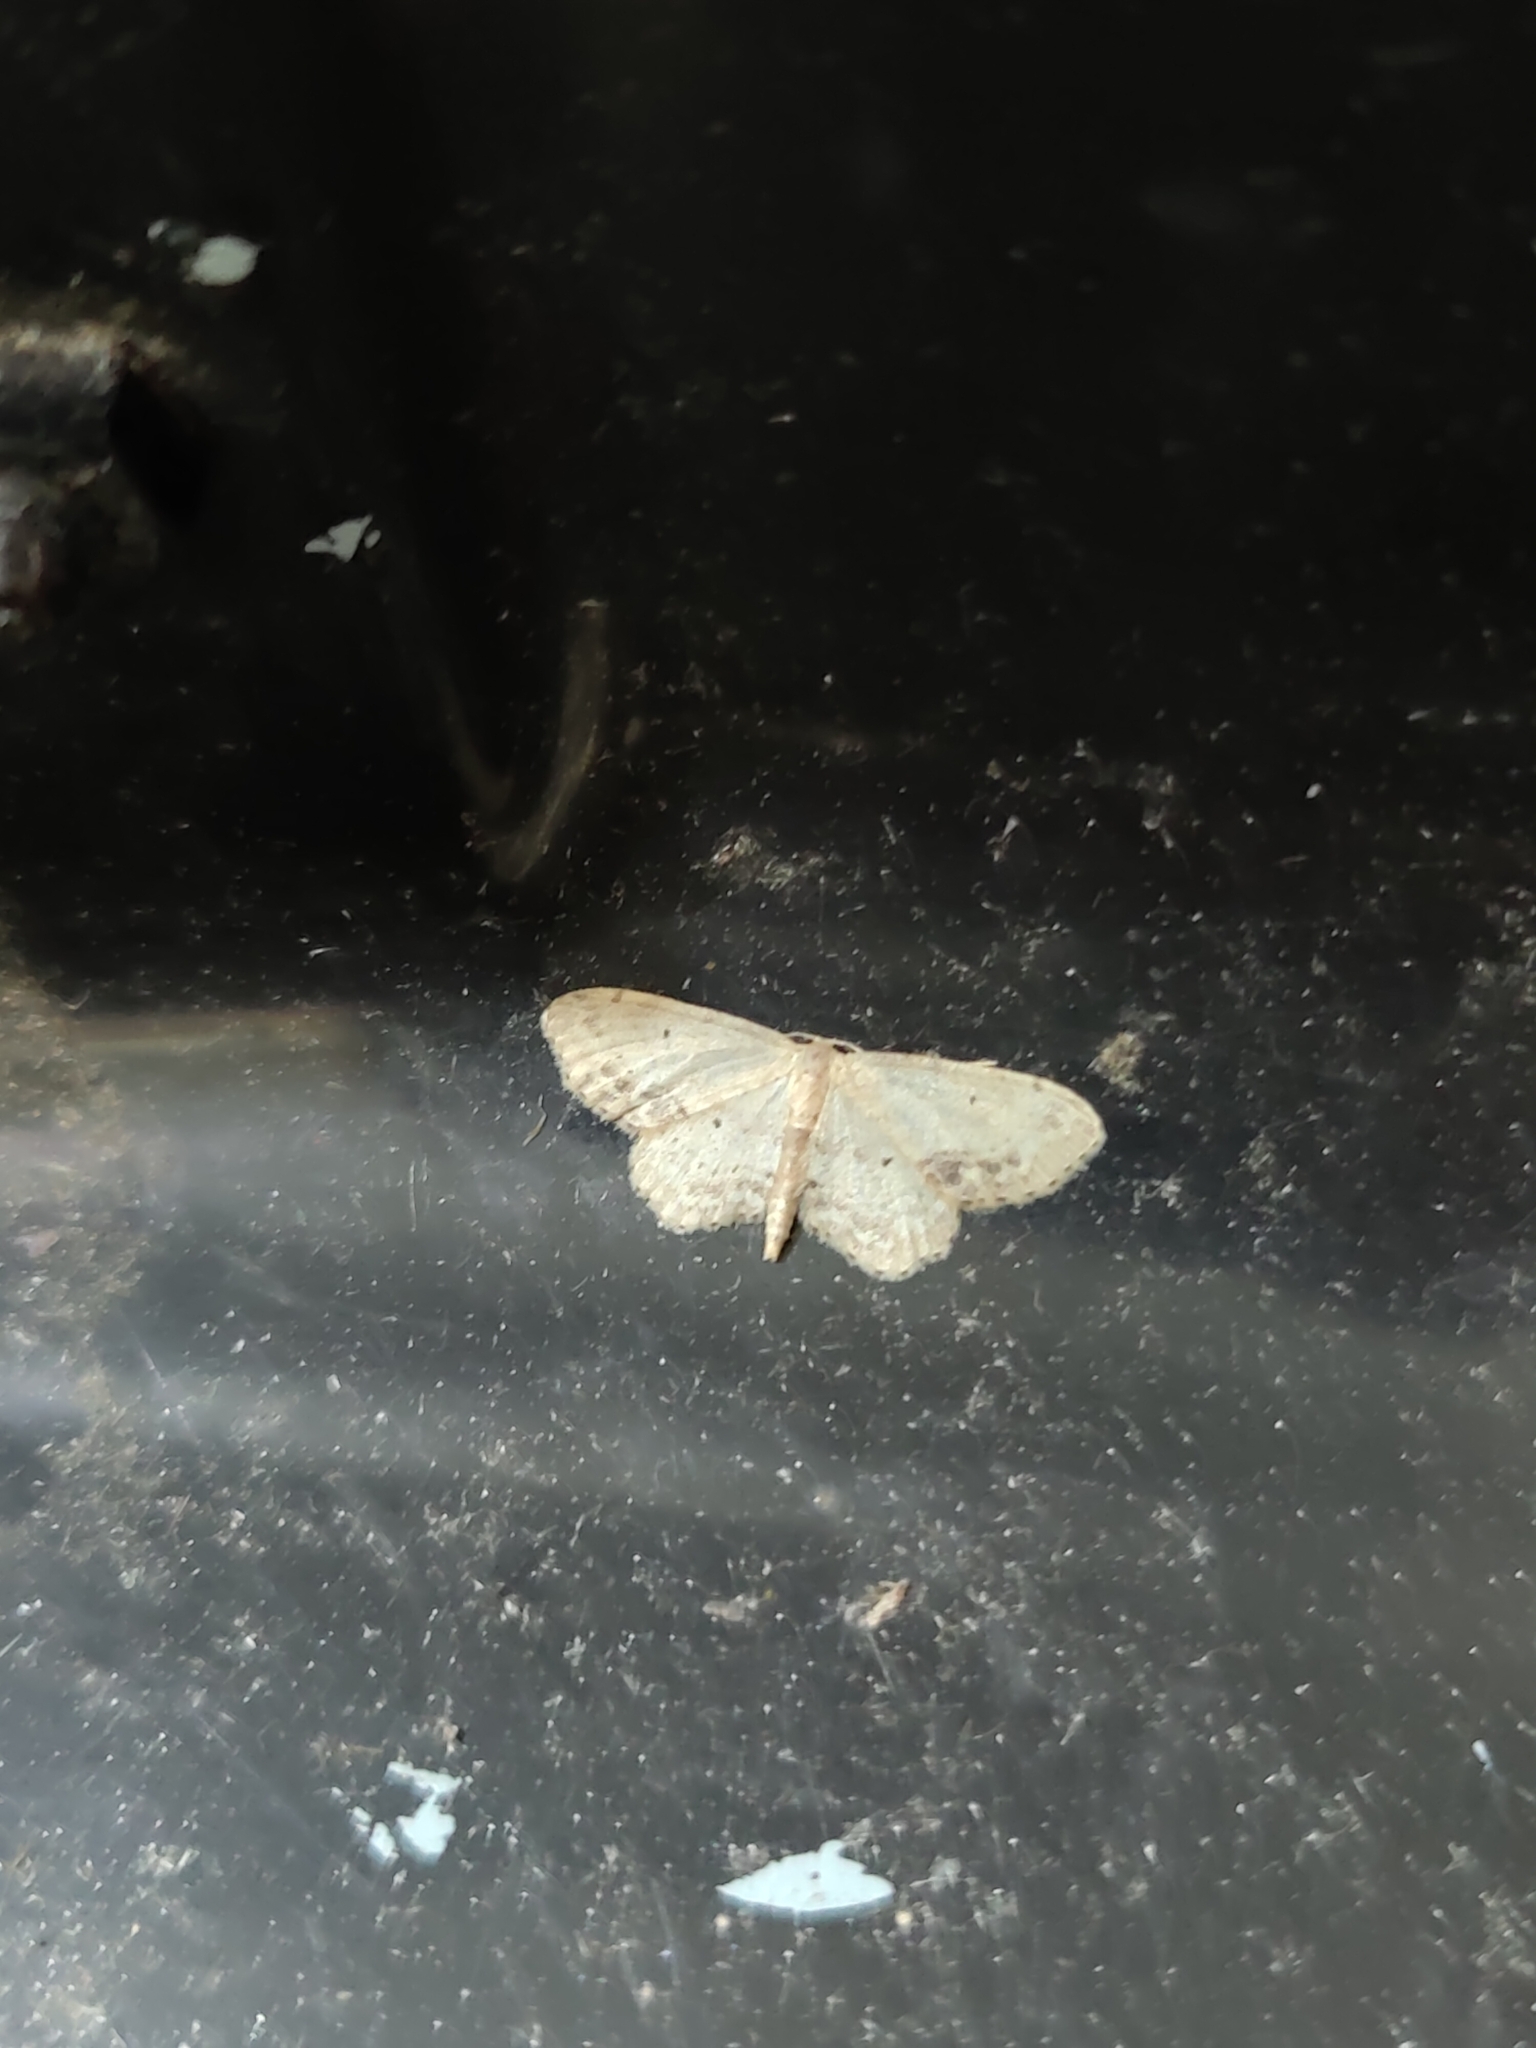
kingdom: Animalia
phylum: Arthropoda
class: Insecta
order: Lepidoptera
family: Geometridae
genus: Idaea
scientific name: Idaea dimidiata
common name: Single-dotted wave
